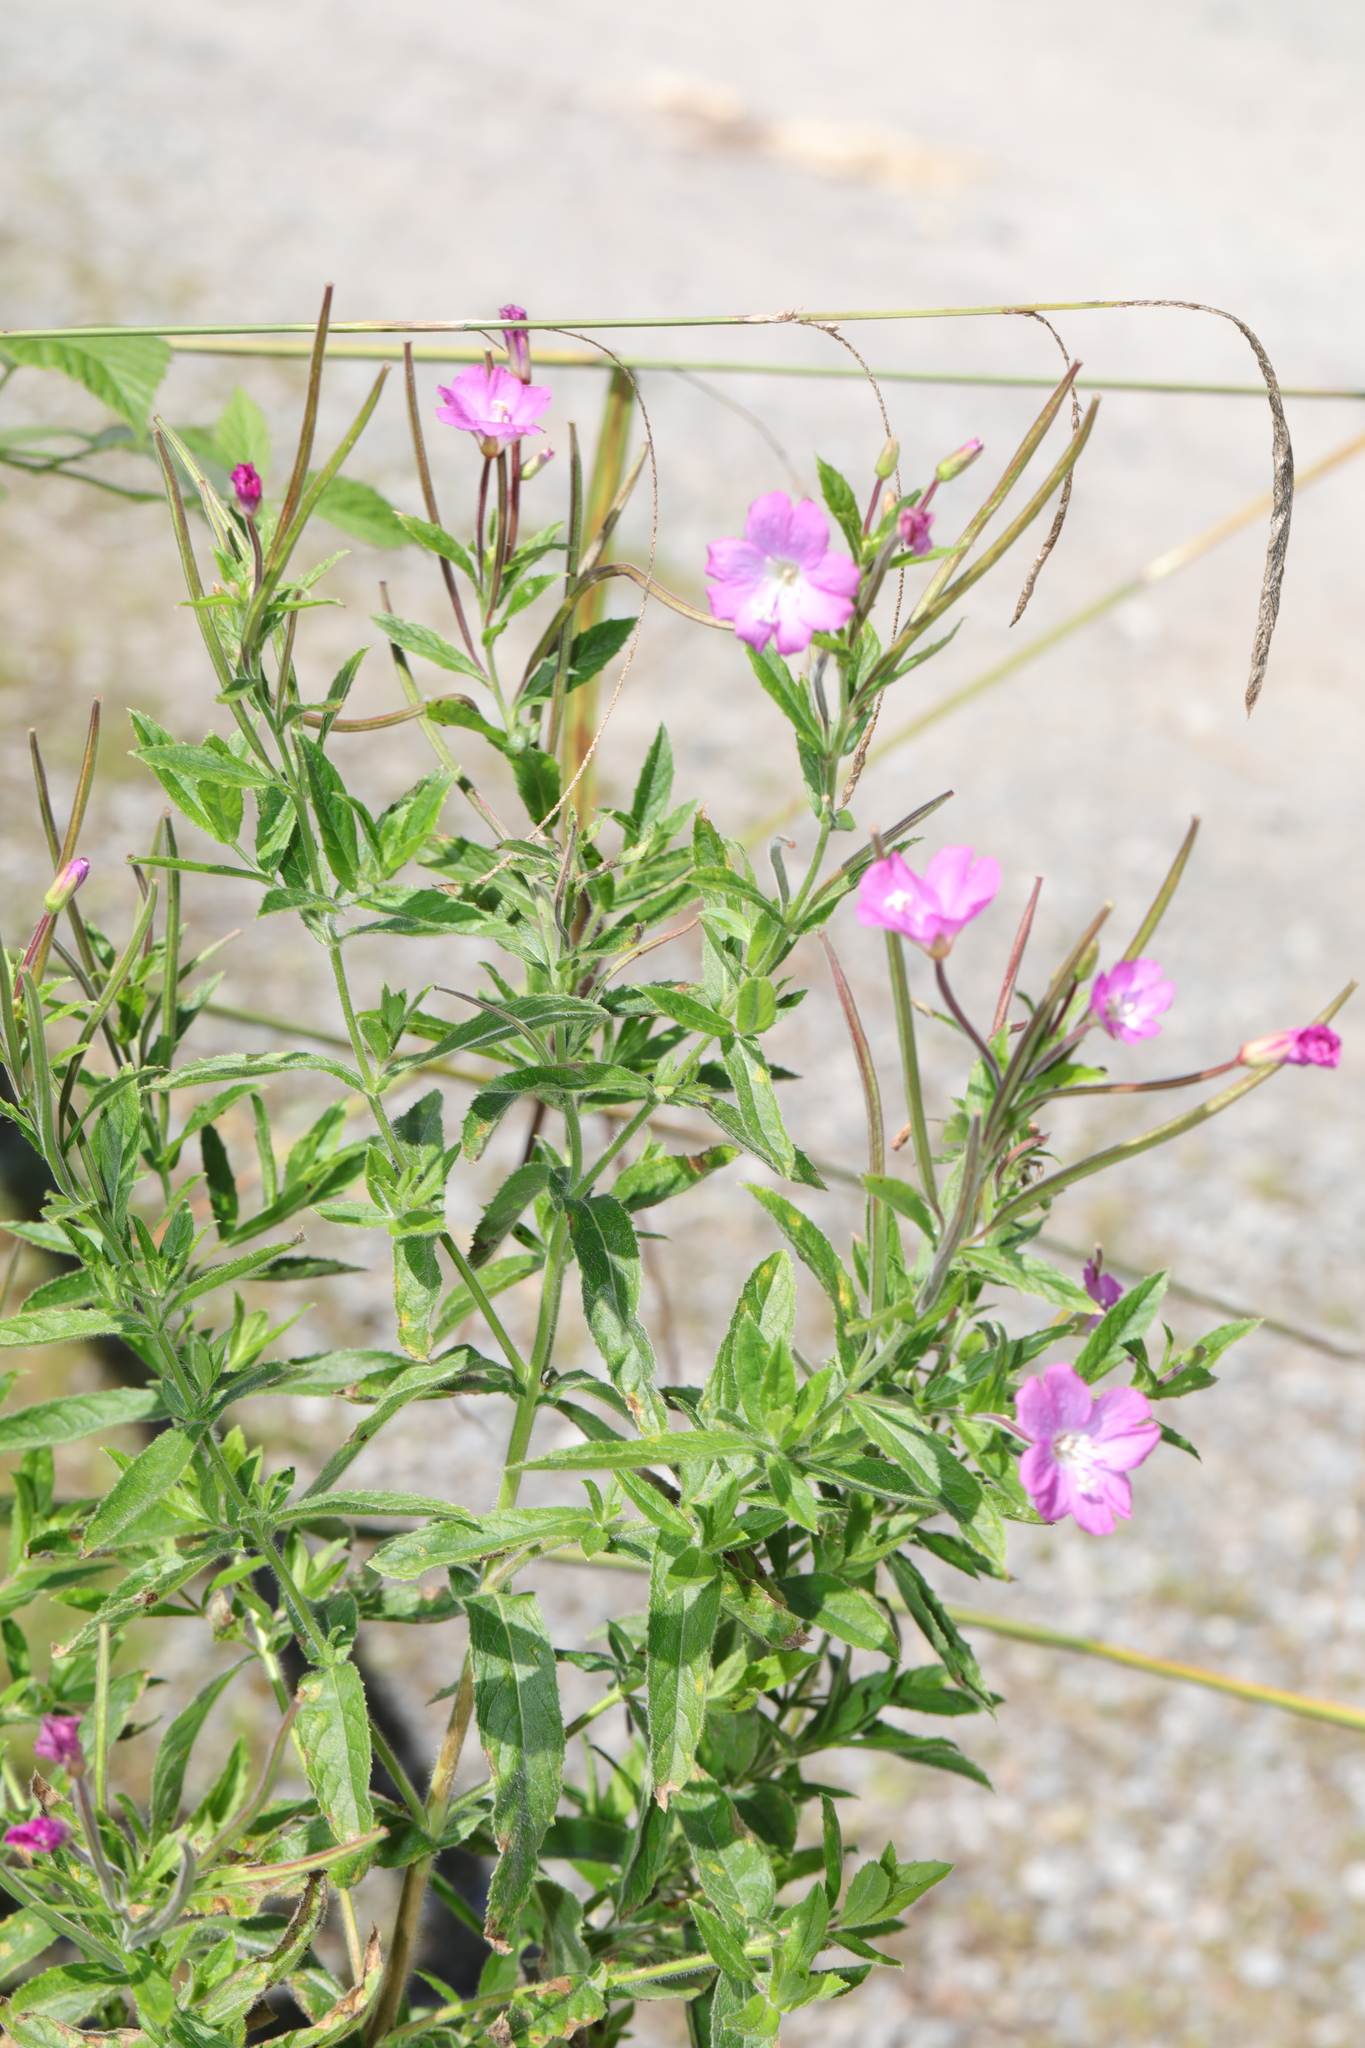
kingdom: Plantae
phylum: Tracheophyta
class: Magnoliopsida
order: Myrtales
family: Onagraceae
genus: Epilobium
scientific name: Epilobium hirsutum
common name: Great willowherb
